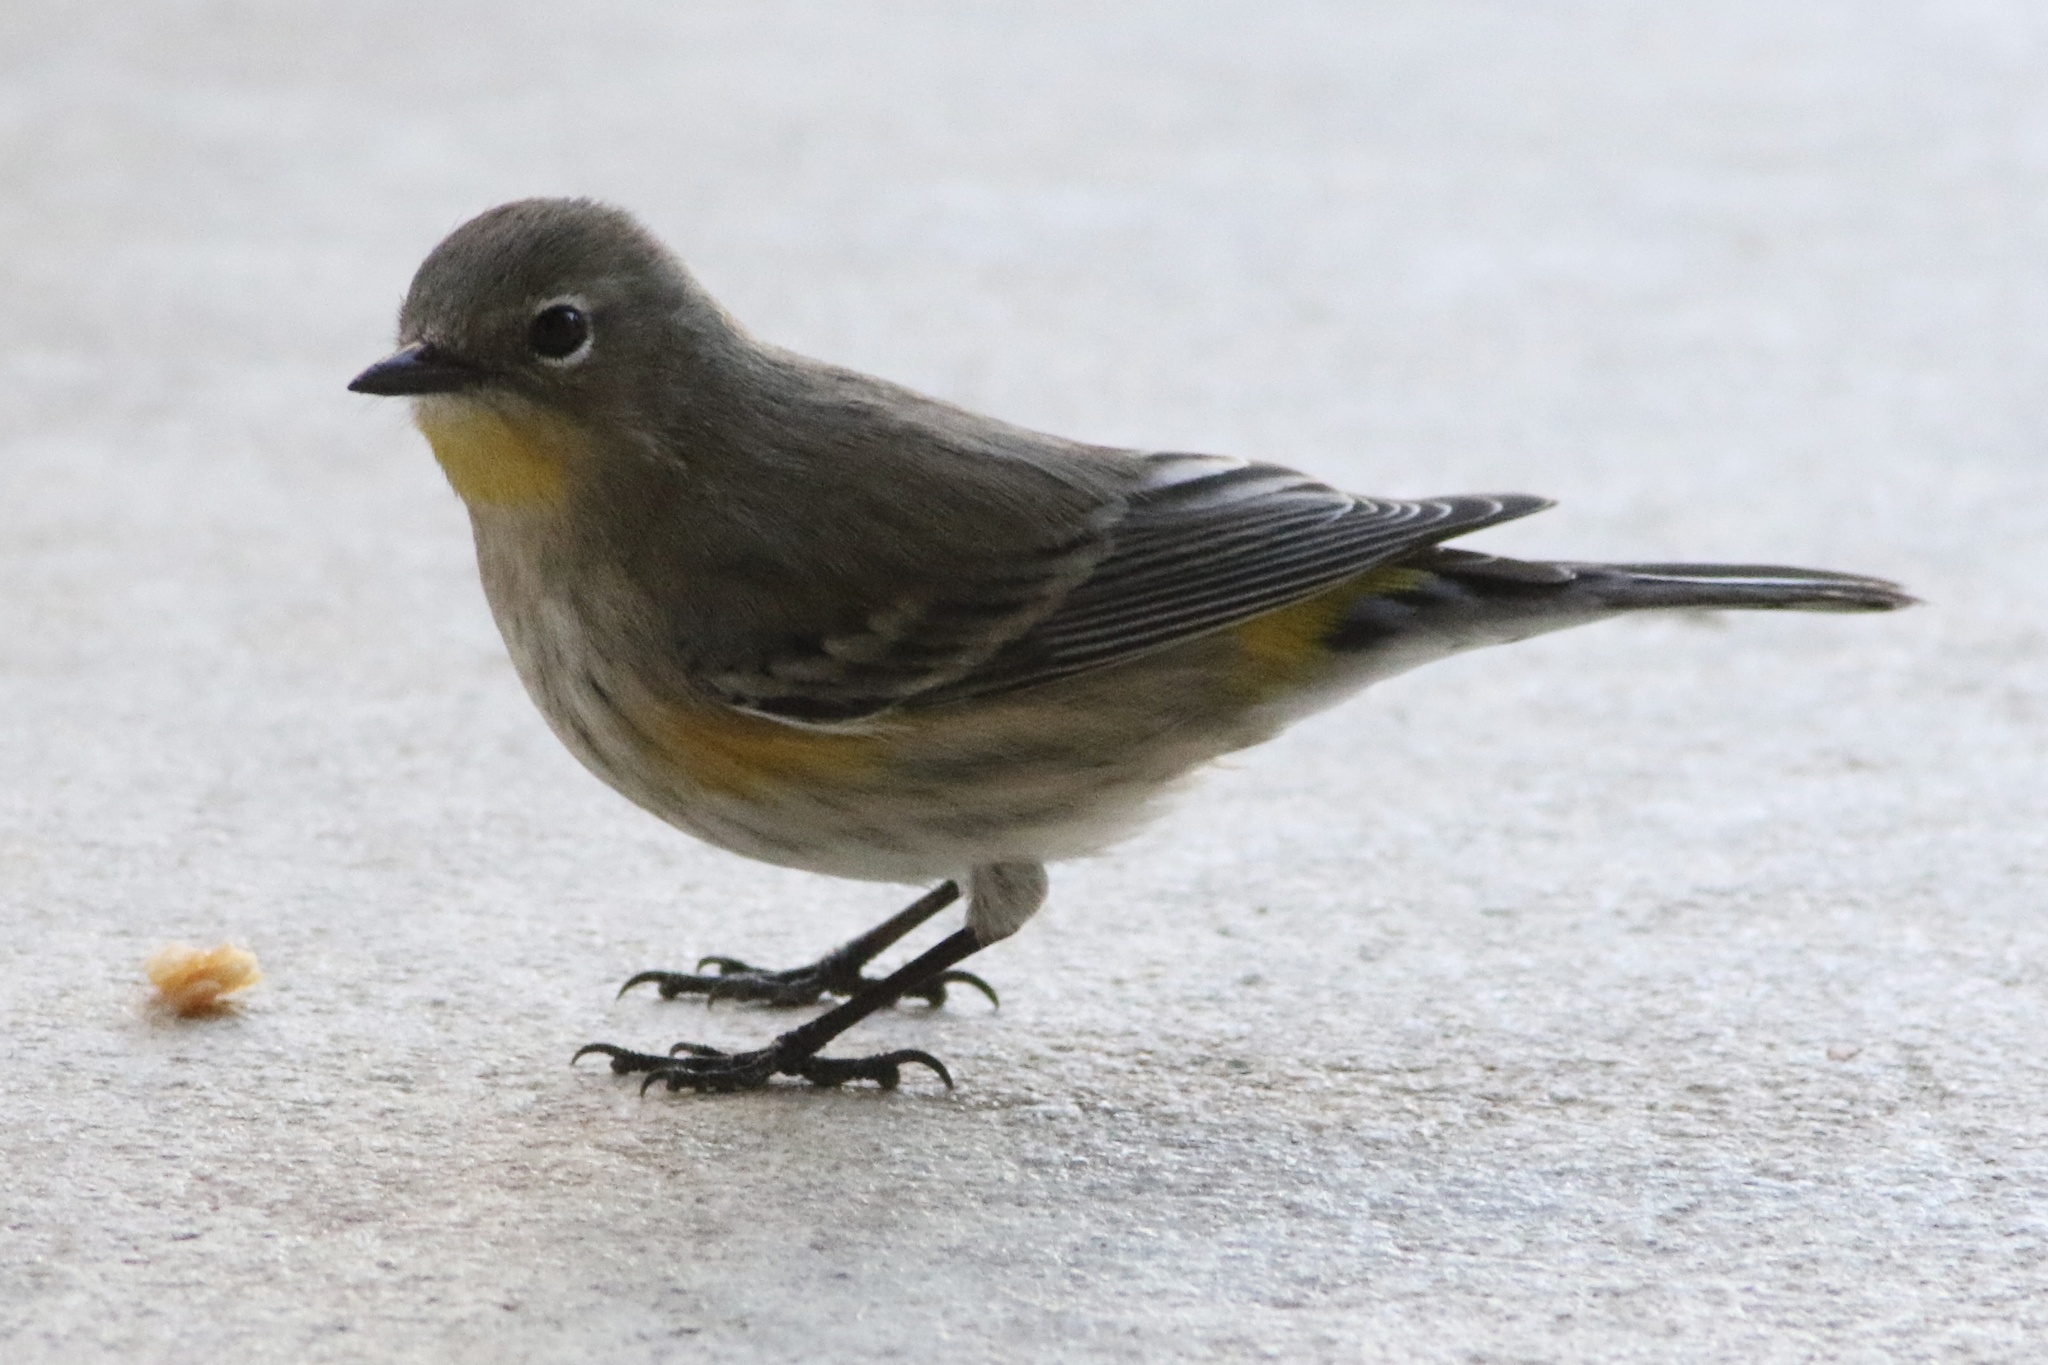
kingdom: Animalia
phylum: Chordata
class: Aves
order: Passeriformes
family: Parulidae
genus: Setophaga
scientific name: Setophaga auduboni
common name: Audubon's warbler
